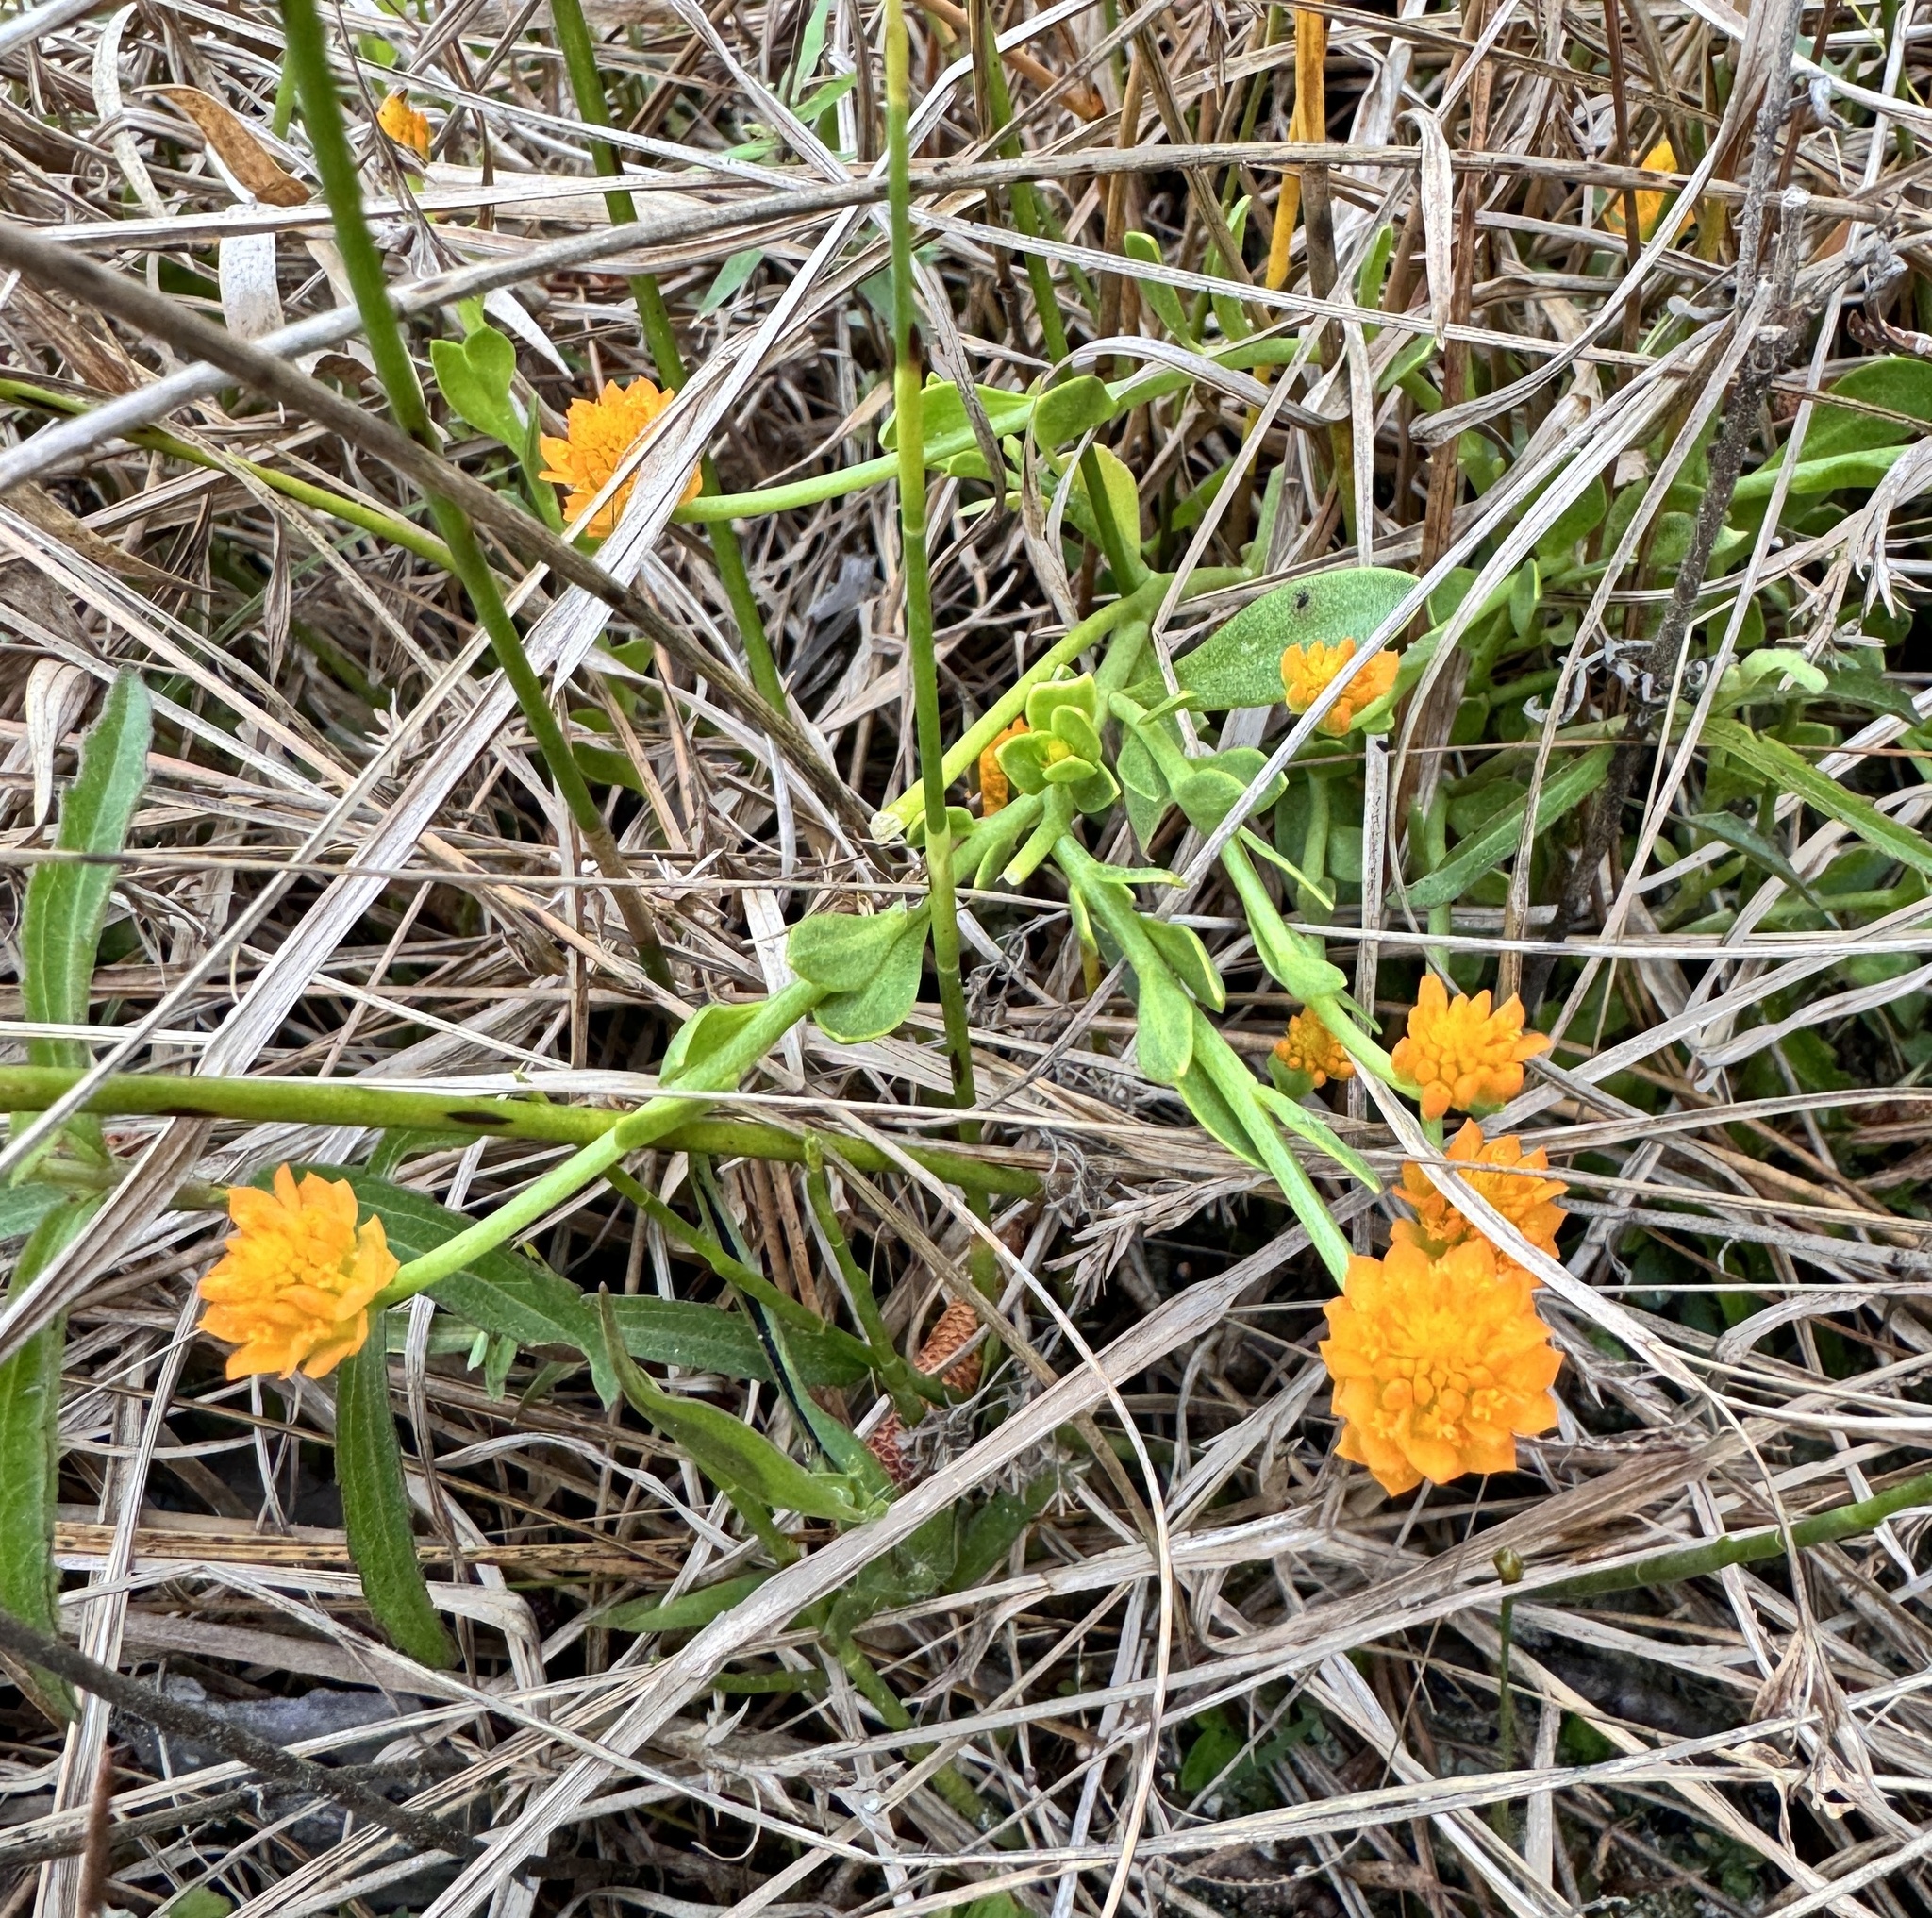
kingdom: Plantae
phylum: Tracheophyta
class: Magnoliopsida
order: Fabales
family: Polygalaceae
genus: Polygala
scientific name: Polygala lutea
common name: Orange milkwort
